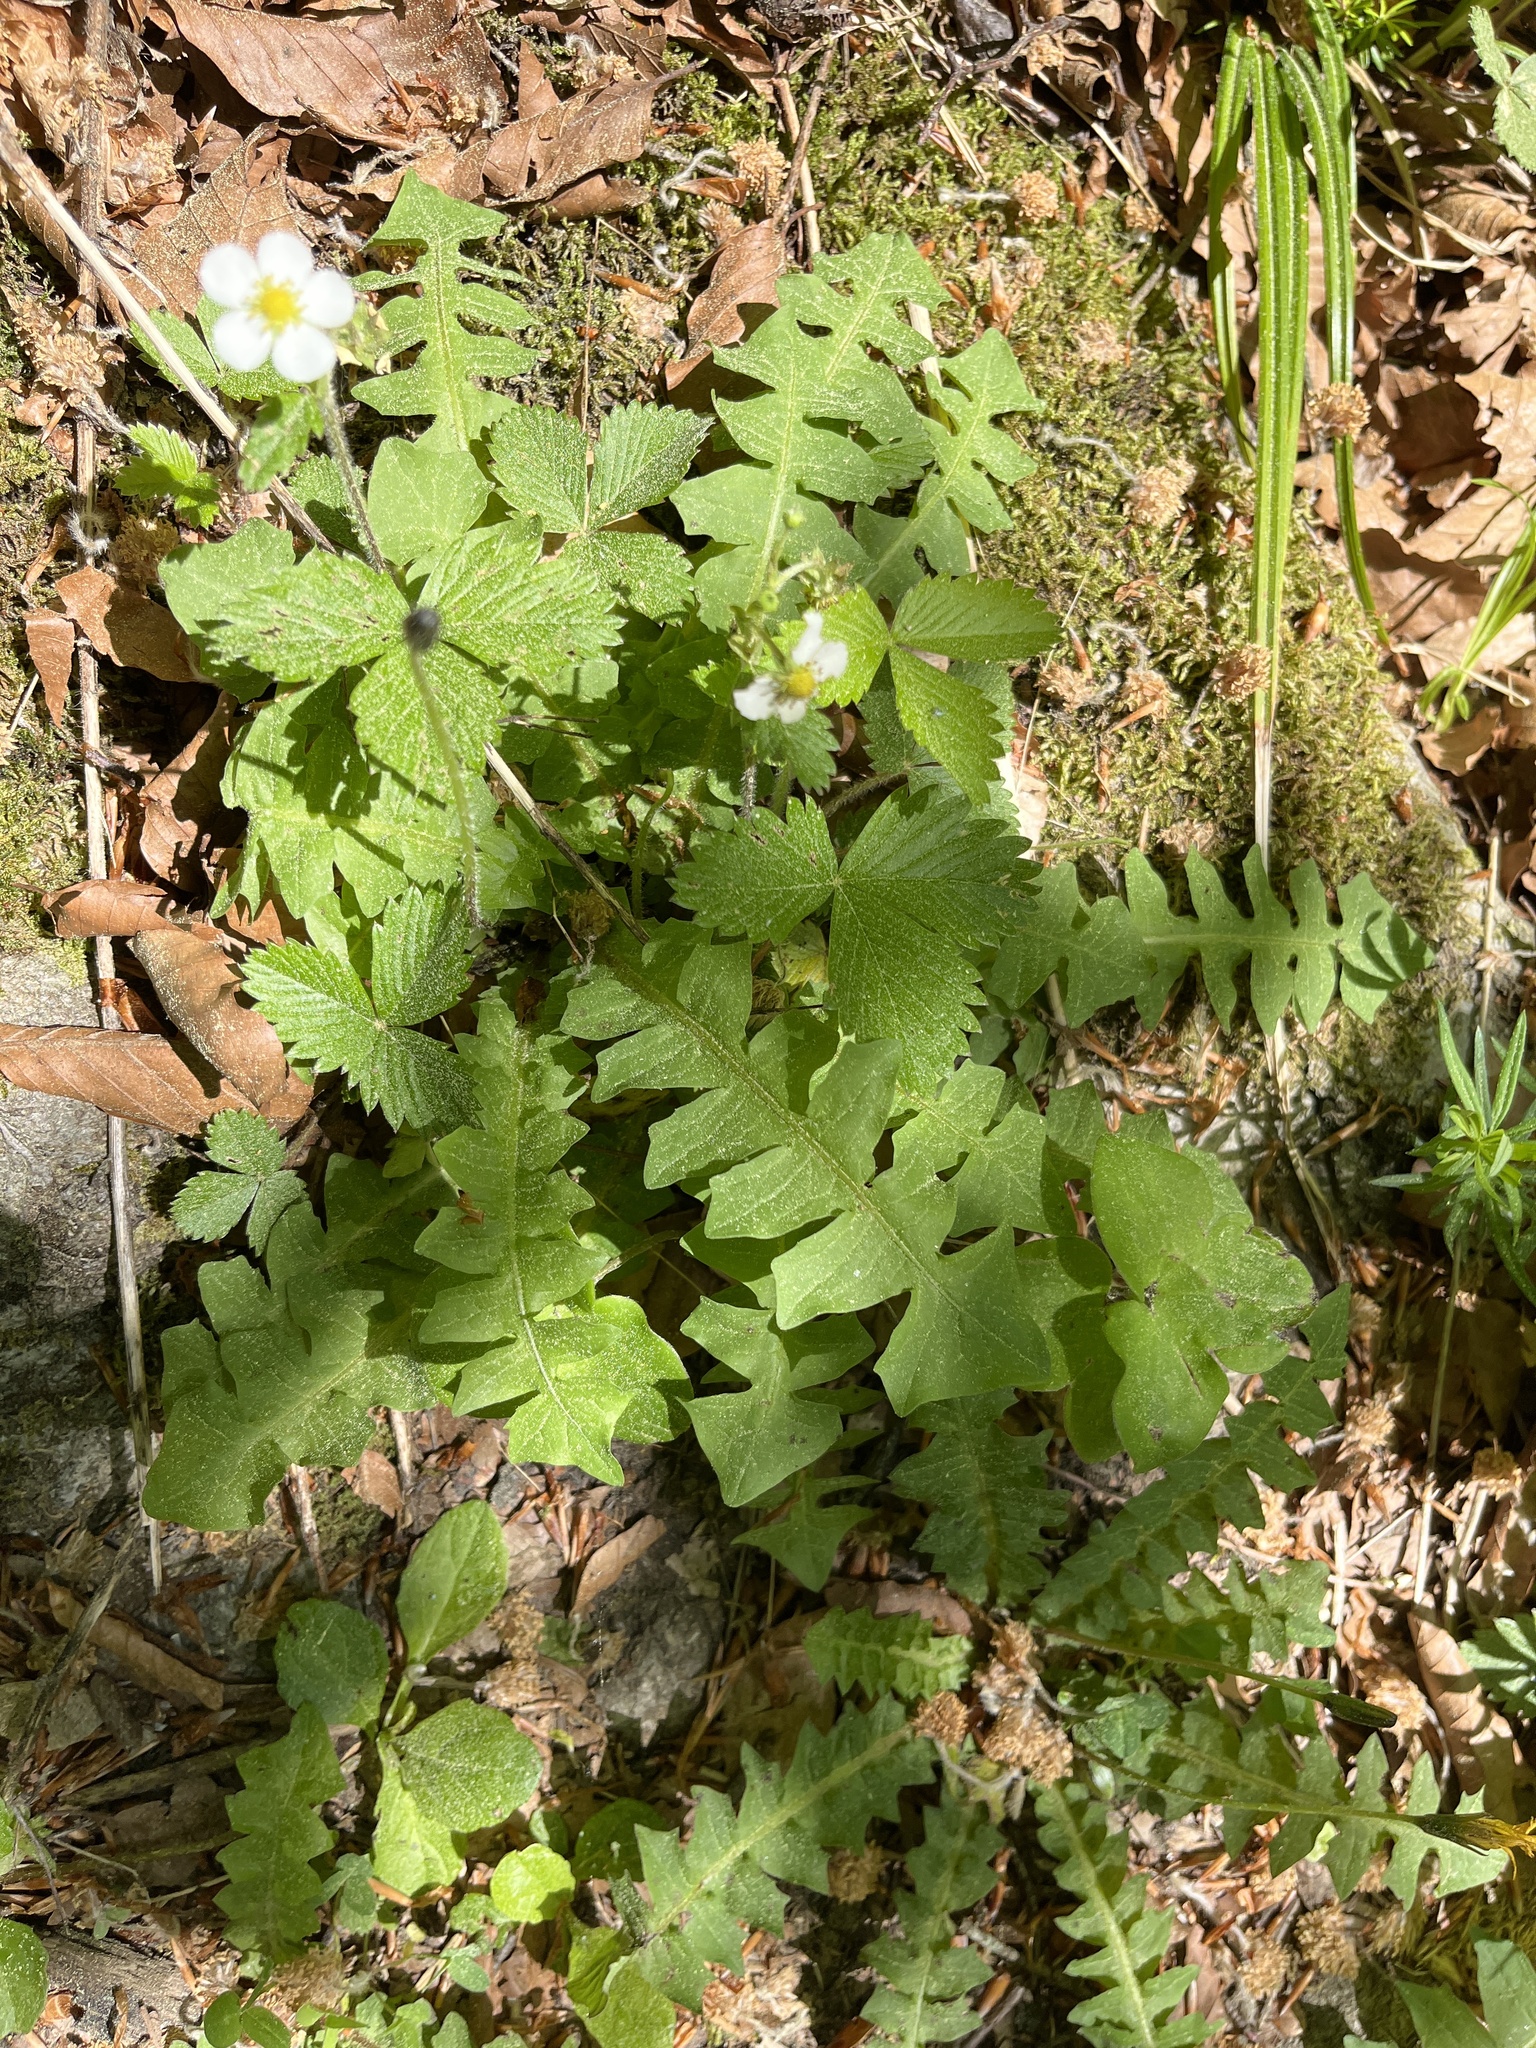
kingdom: Plantae
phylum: Tracheophyta
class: Magnoliopsida
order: Asterales
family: Asteraceae
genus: Aposeris
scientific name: Aposeris foetida
